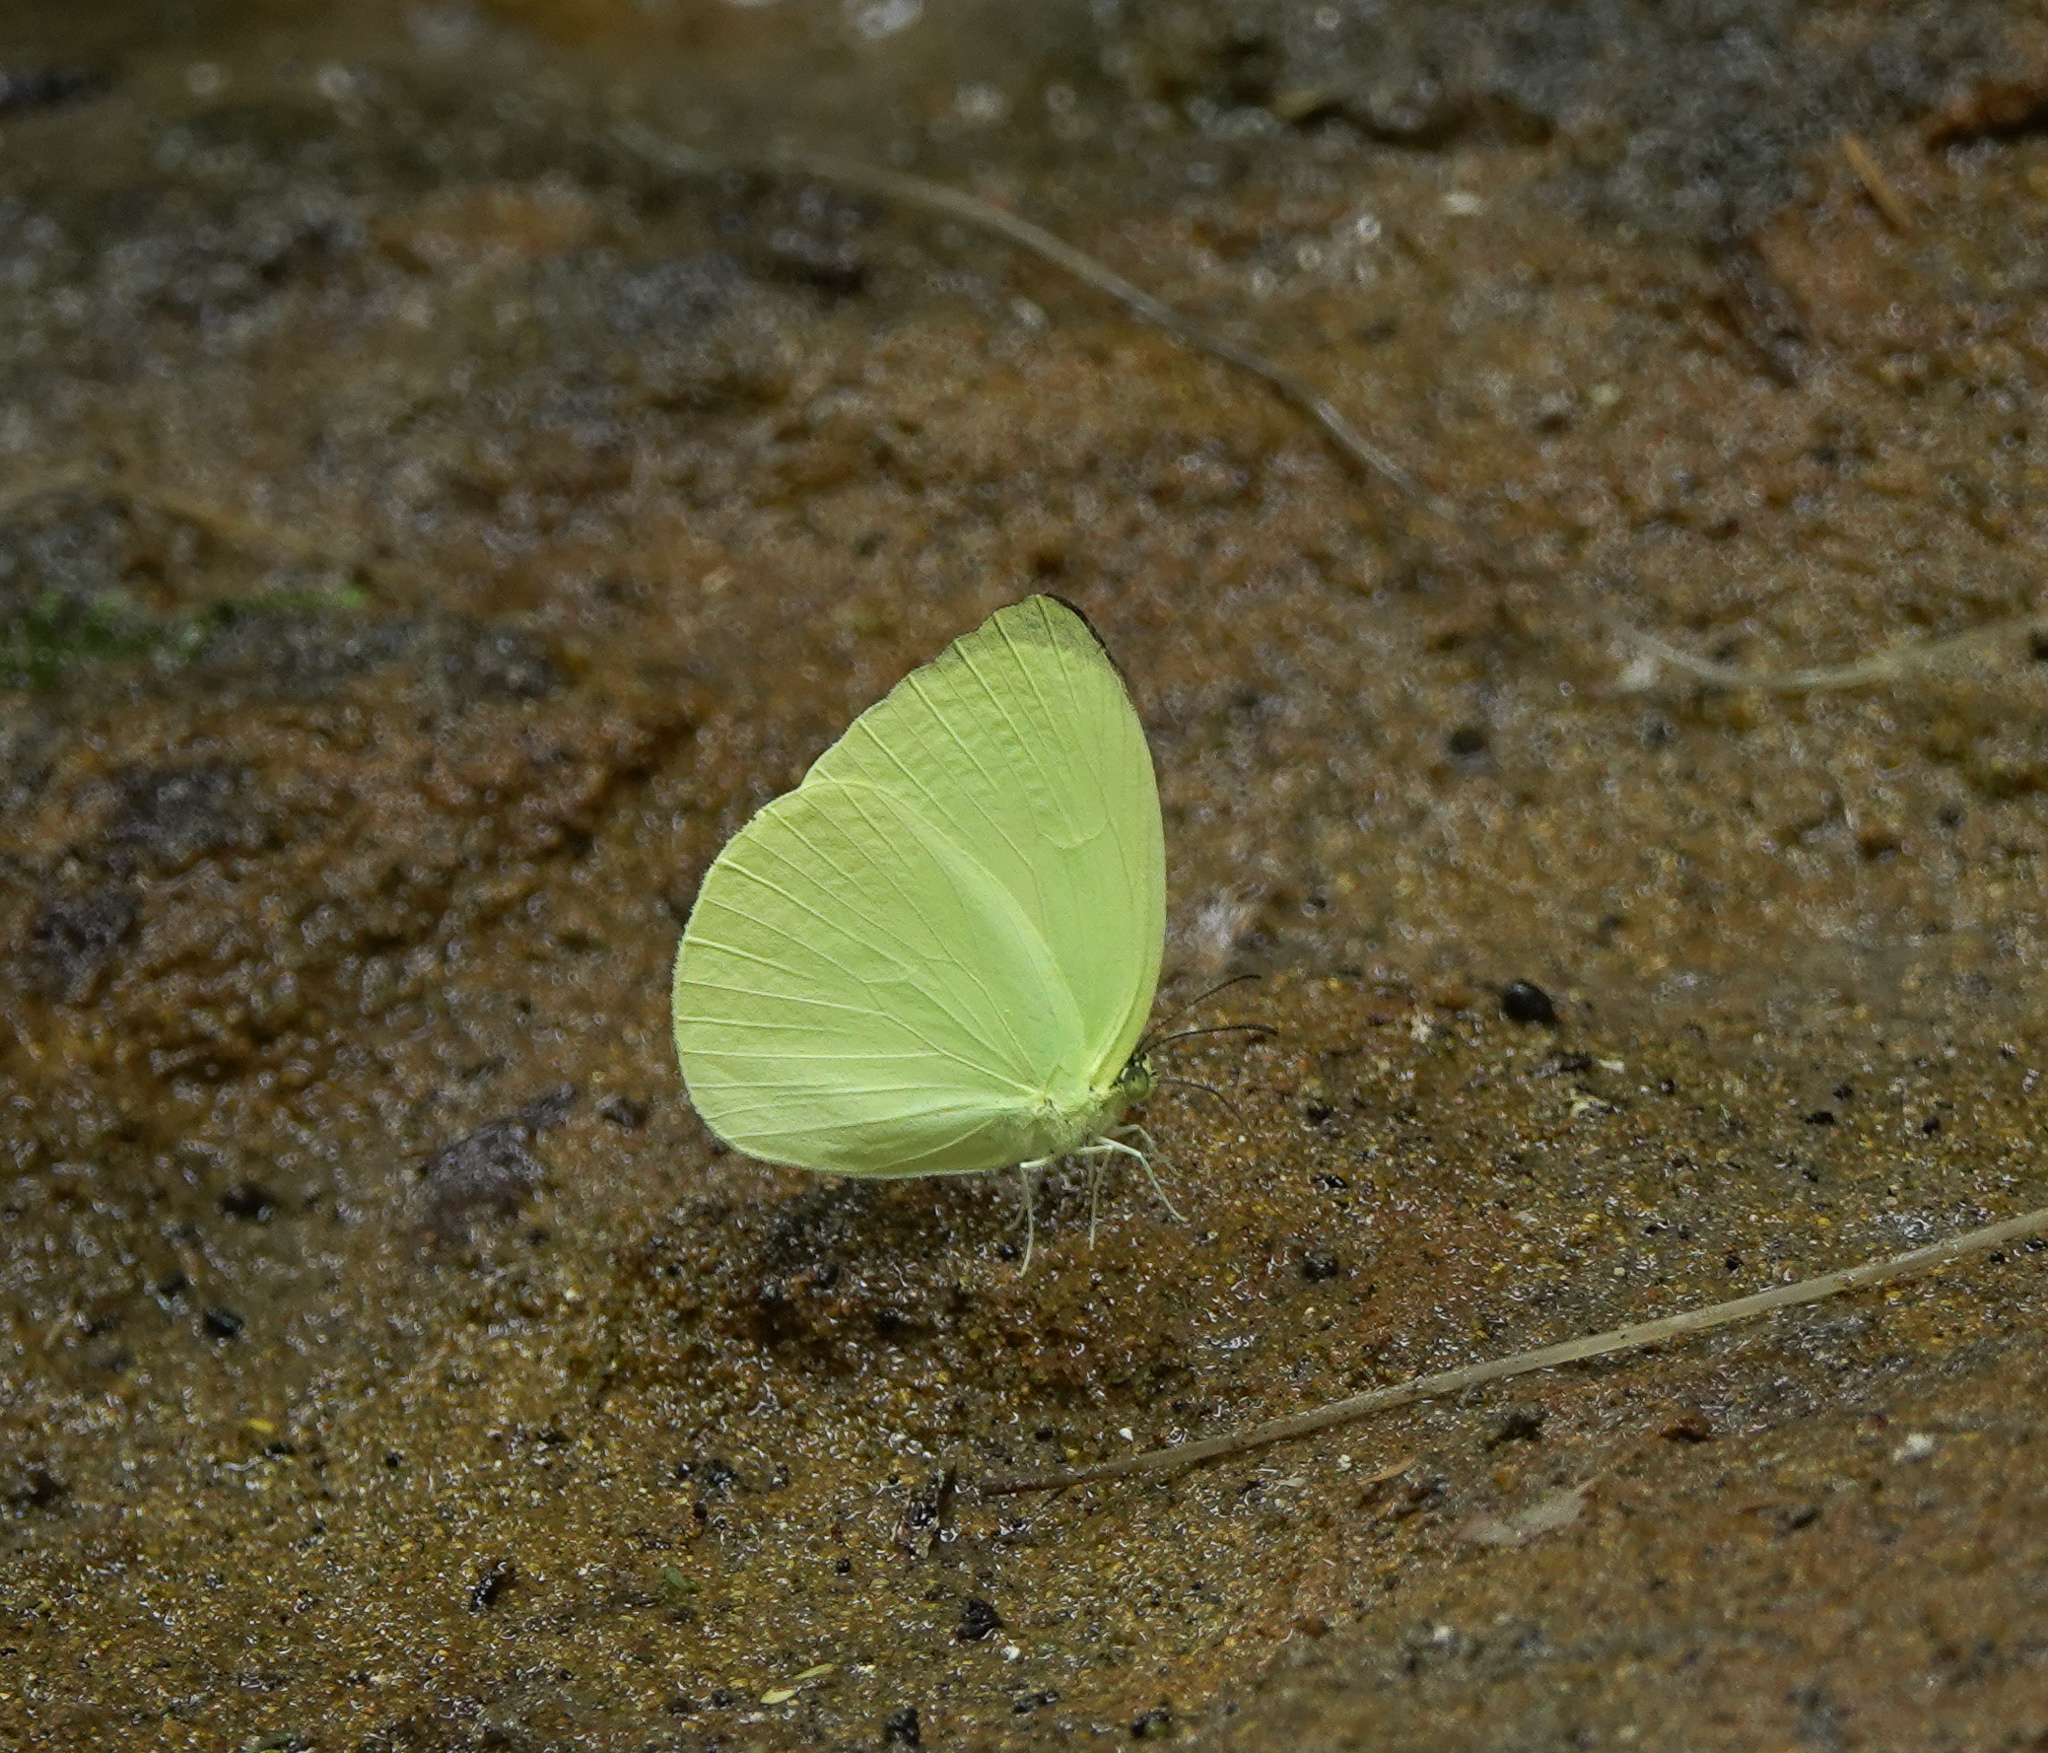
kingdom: Animalia
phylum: Arthropoda
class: Insecta
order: Lepidoptera
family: Pieridae
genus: Gandaca
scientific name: Gandaca harina
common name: Tree yellow
